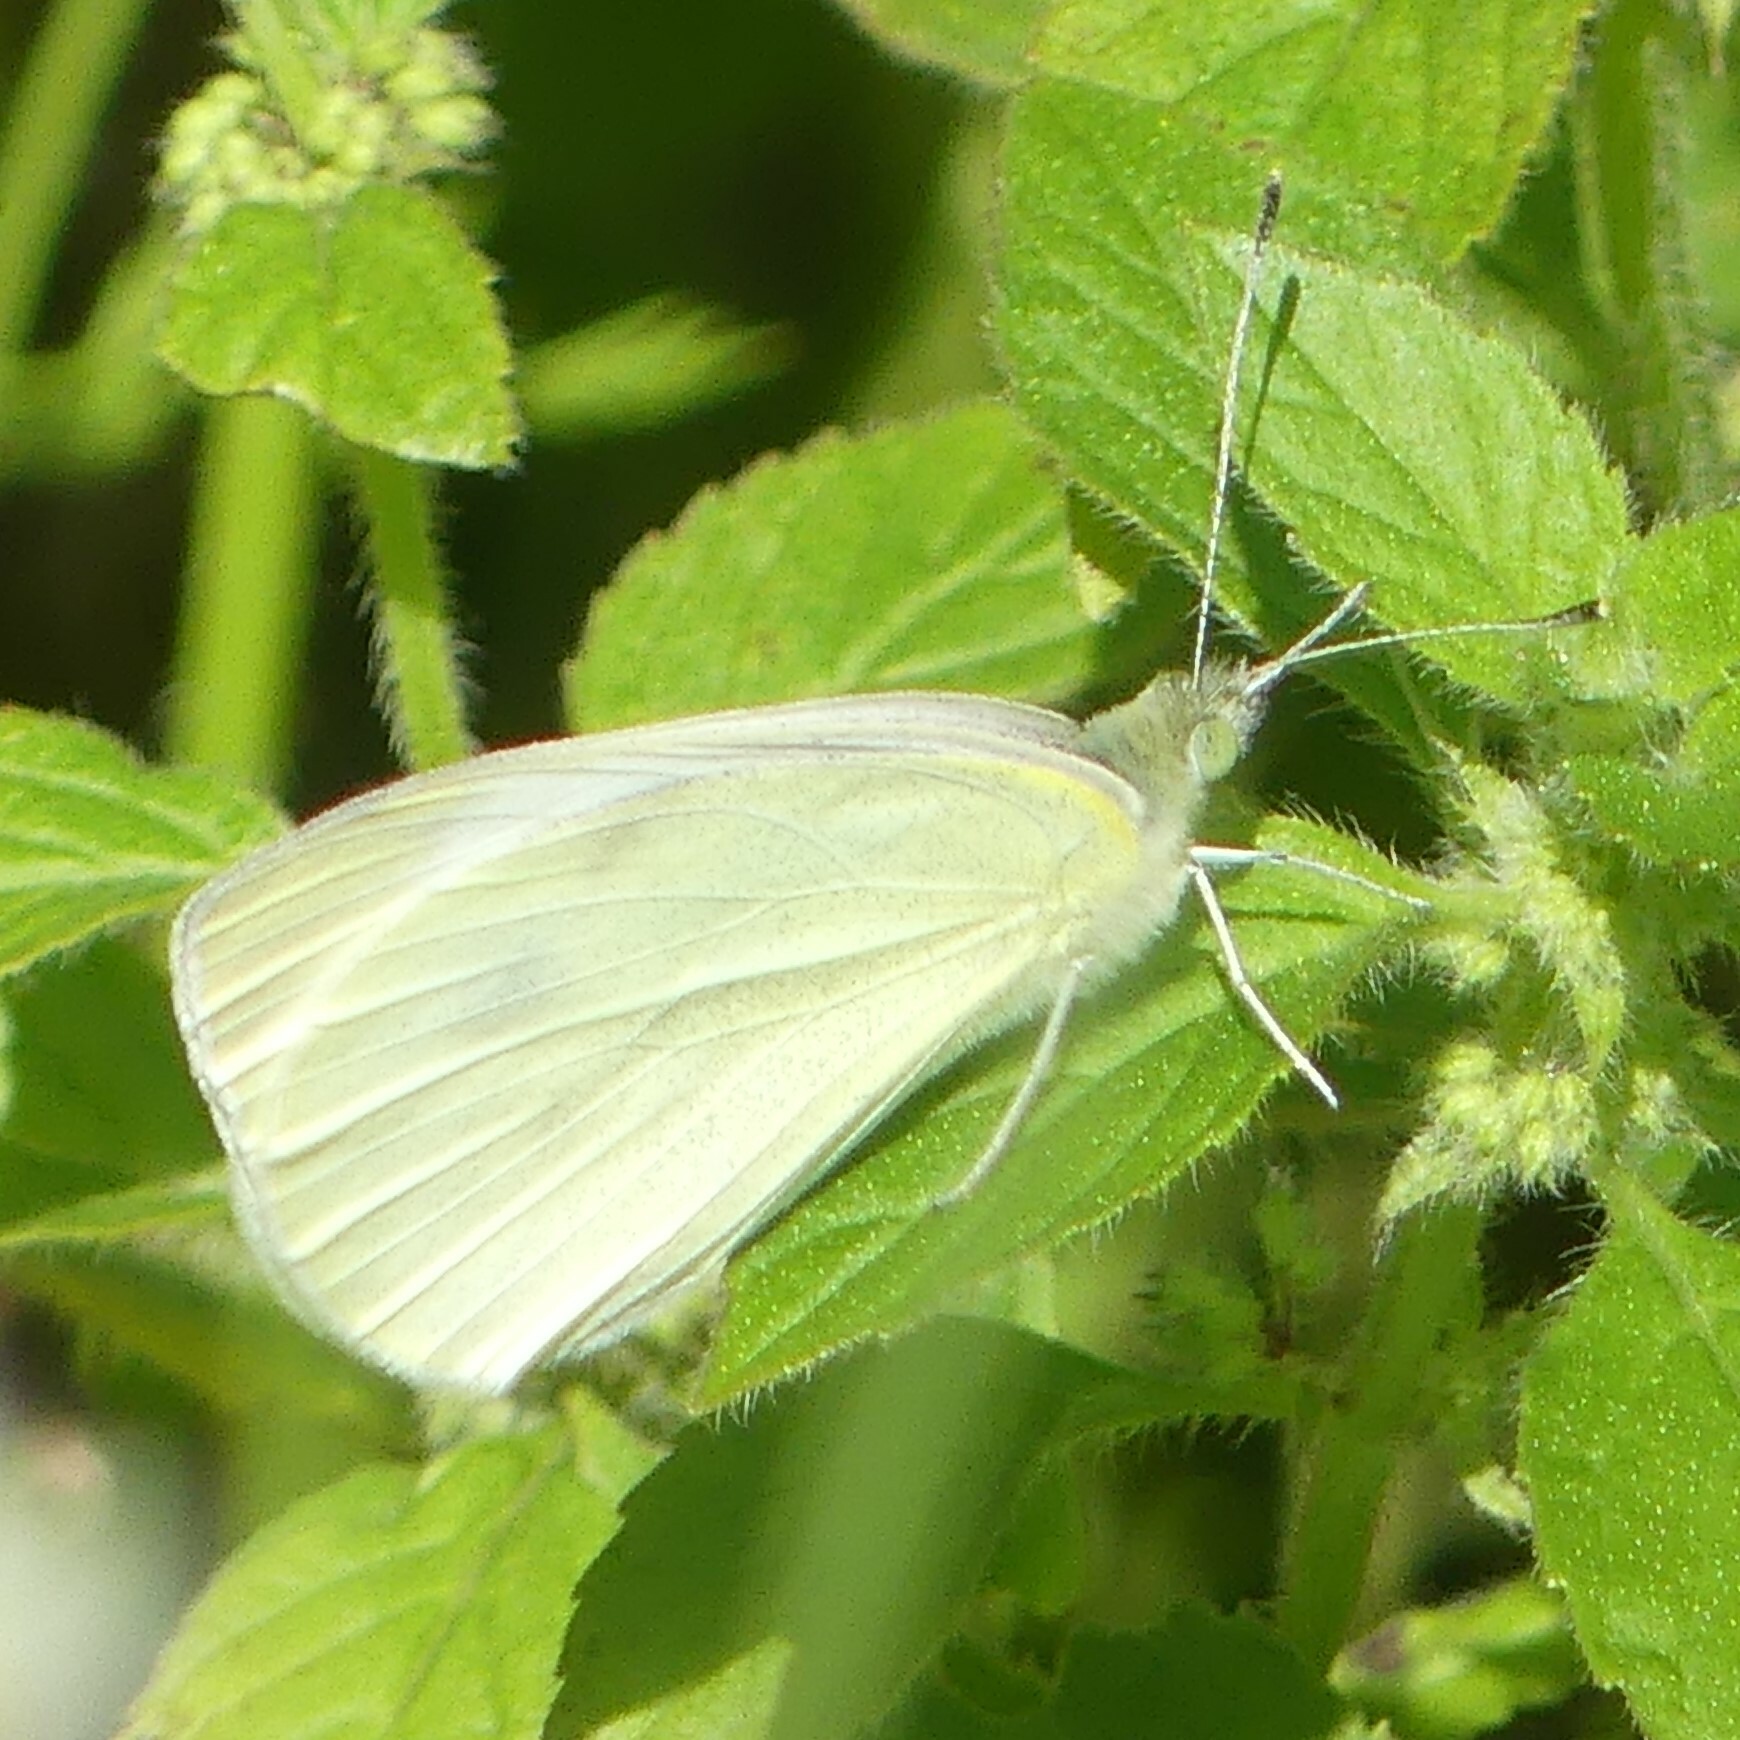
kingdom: Animalia
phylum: Arthropoda
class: Insecta
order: Lepidoptera
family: Pieridae
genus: Pieris
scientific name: Pieris rapae
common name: Small white
